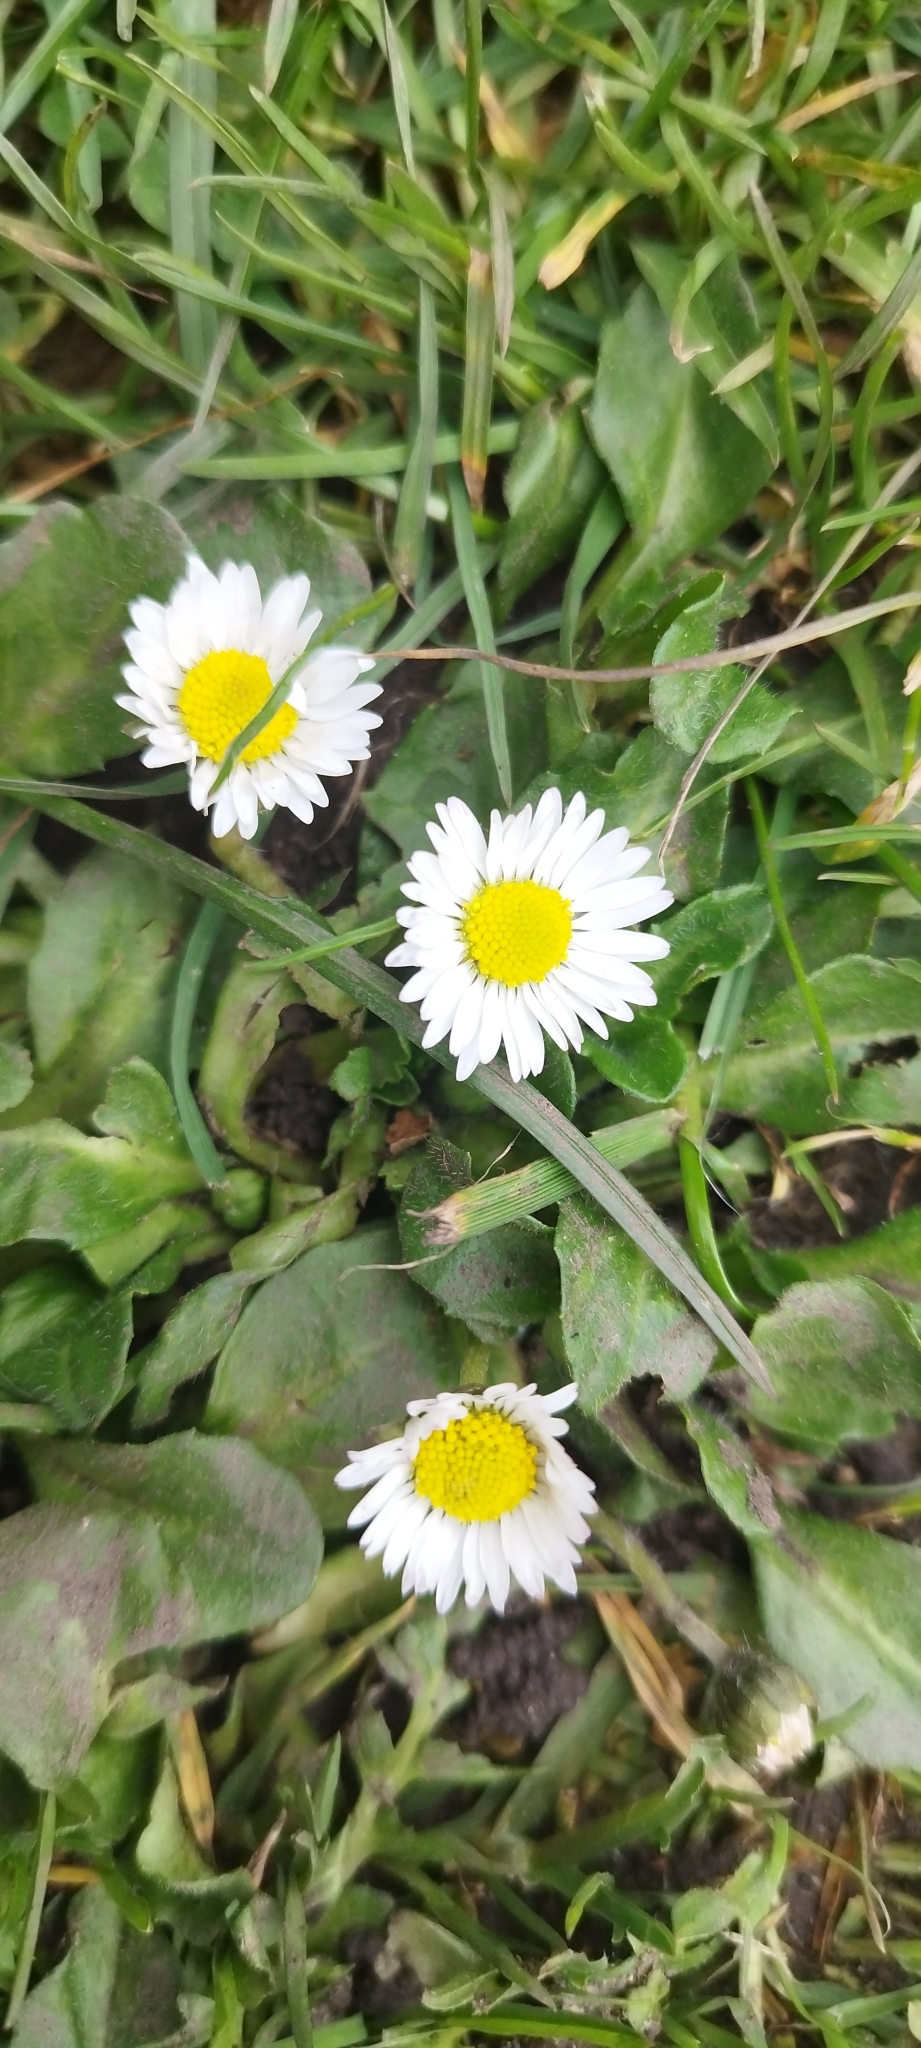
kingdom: Plantae
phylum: Tracheophyta
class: Magnoliopsida
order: Asterales
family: Asteraceae
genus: Bellis
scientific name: Bellis perennis
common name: Lawndaisy
